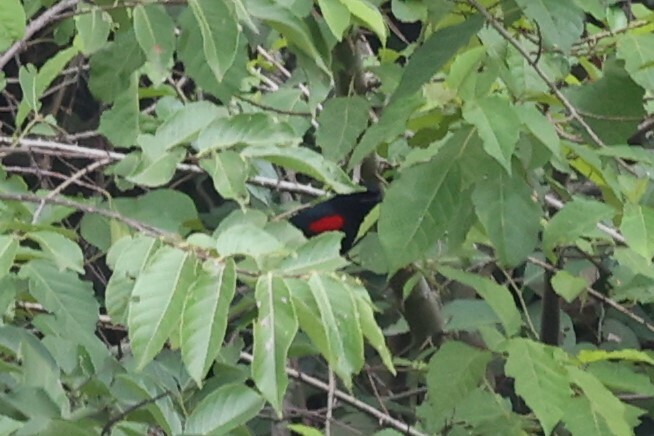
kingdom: Animalia
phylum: Chordata
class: Aves
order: Passeriformes
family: Campephagidae
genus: Campephaga
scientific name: Campephaga phoenicea
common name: Red-shouldered cuckooshrike
